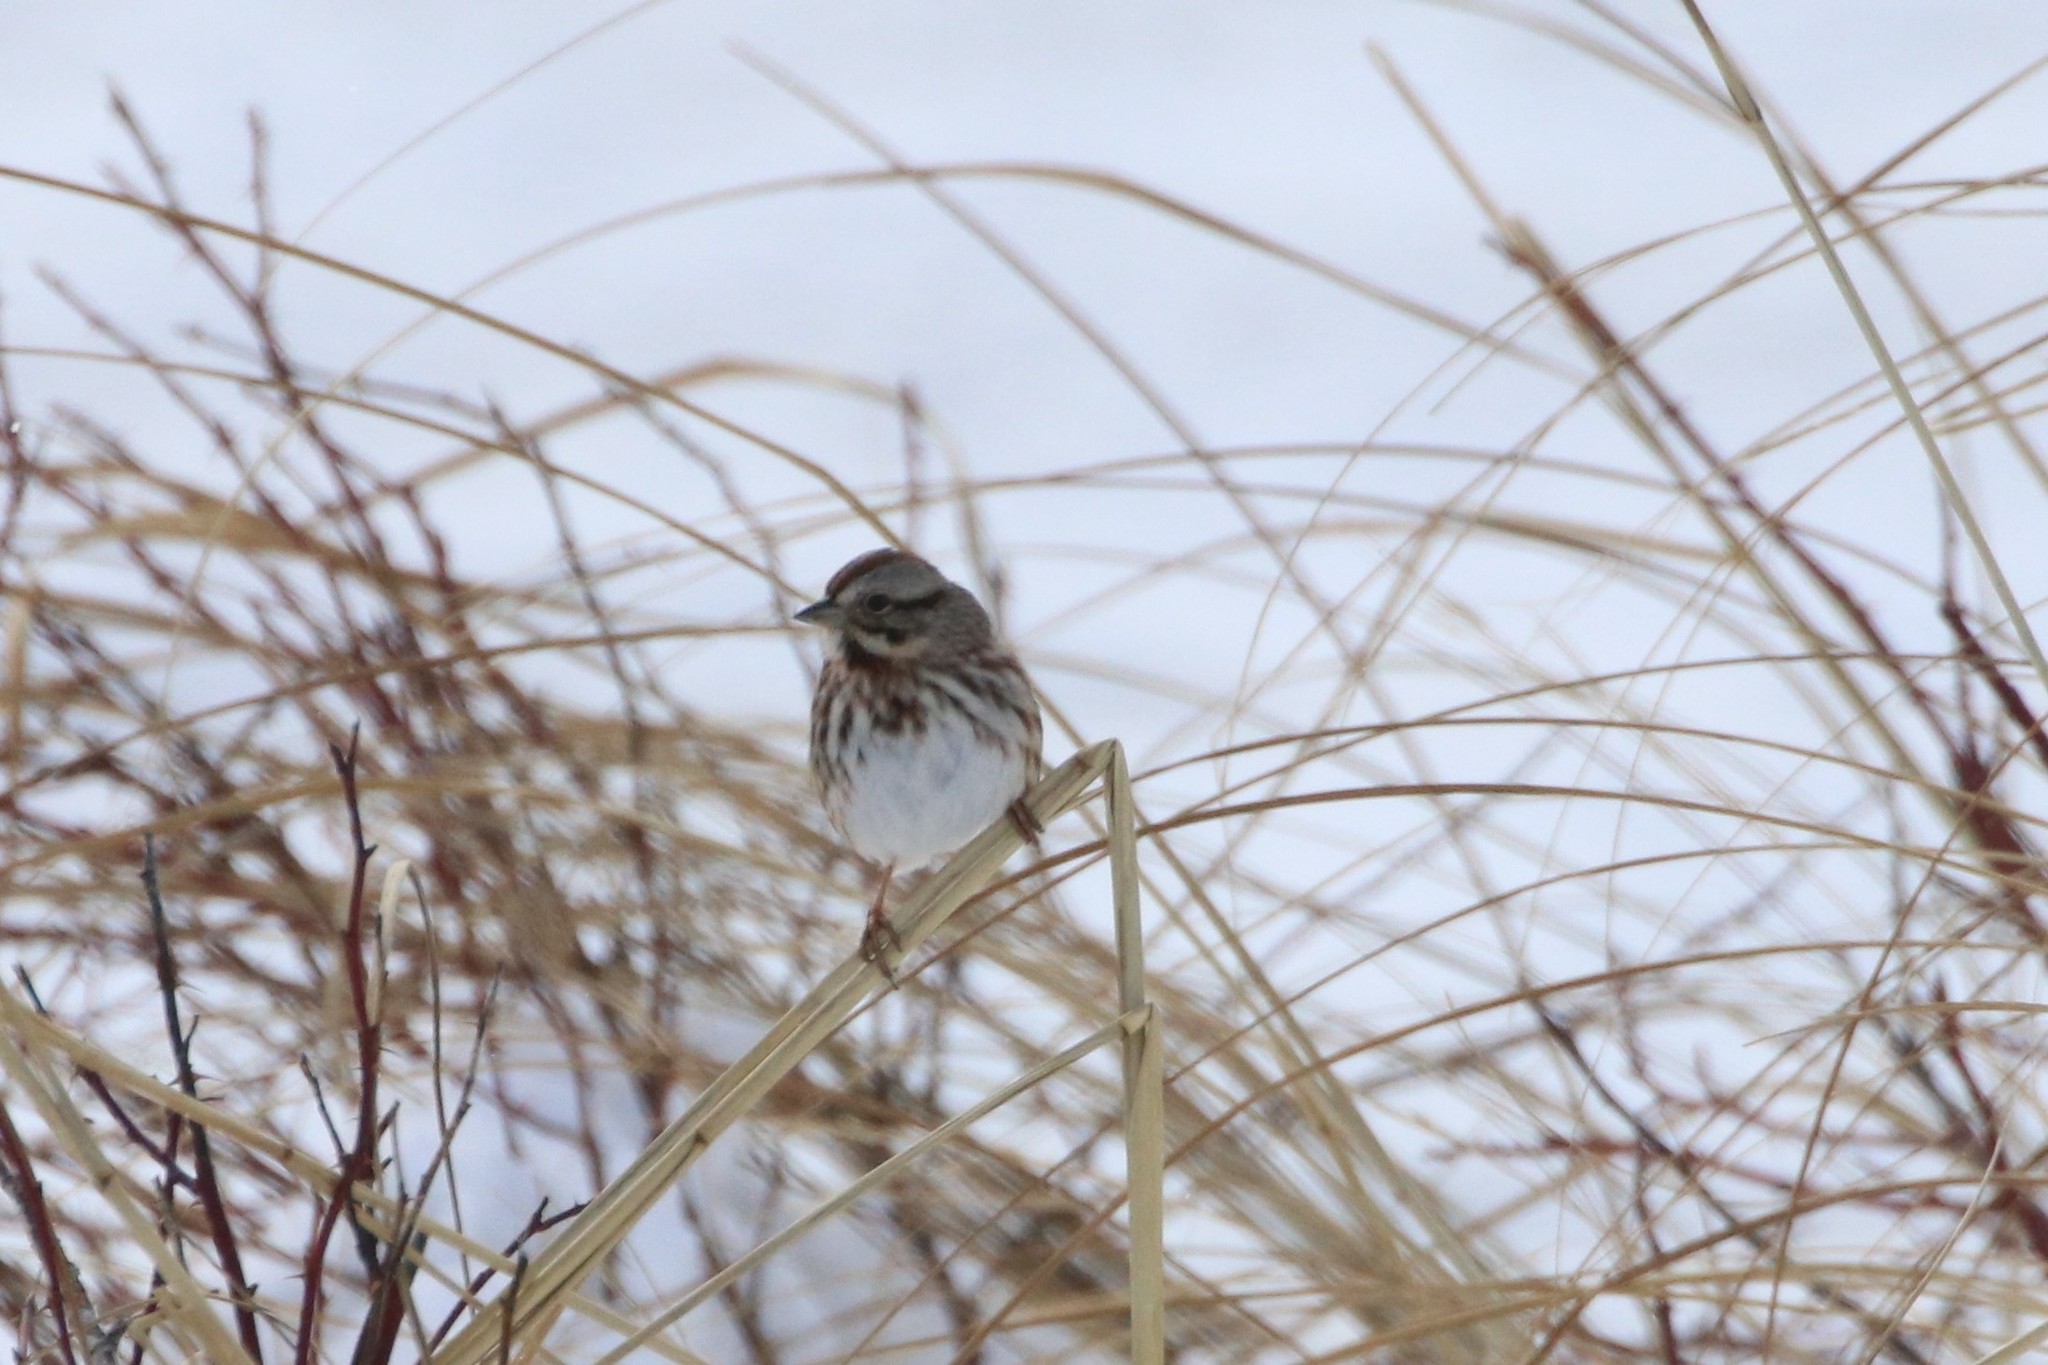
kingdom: Animalia
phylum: Chordata
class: Aves
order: Passeriformes
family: Passerellidae
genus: Melospiza
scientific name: Melospiza melodia
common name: Song sparrow
